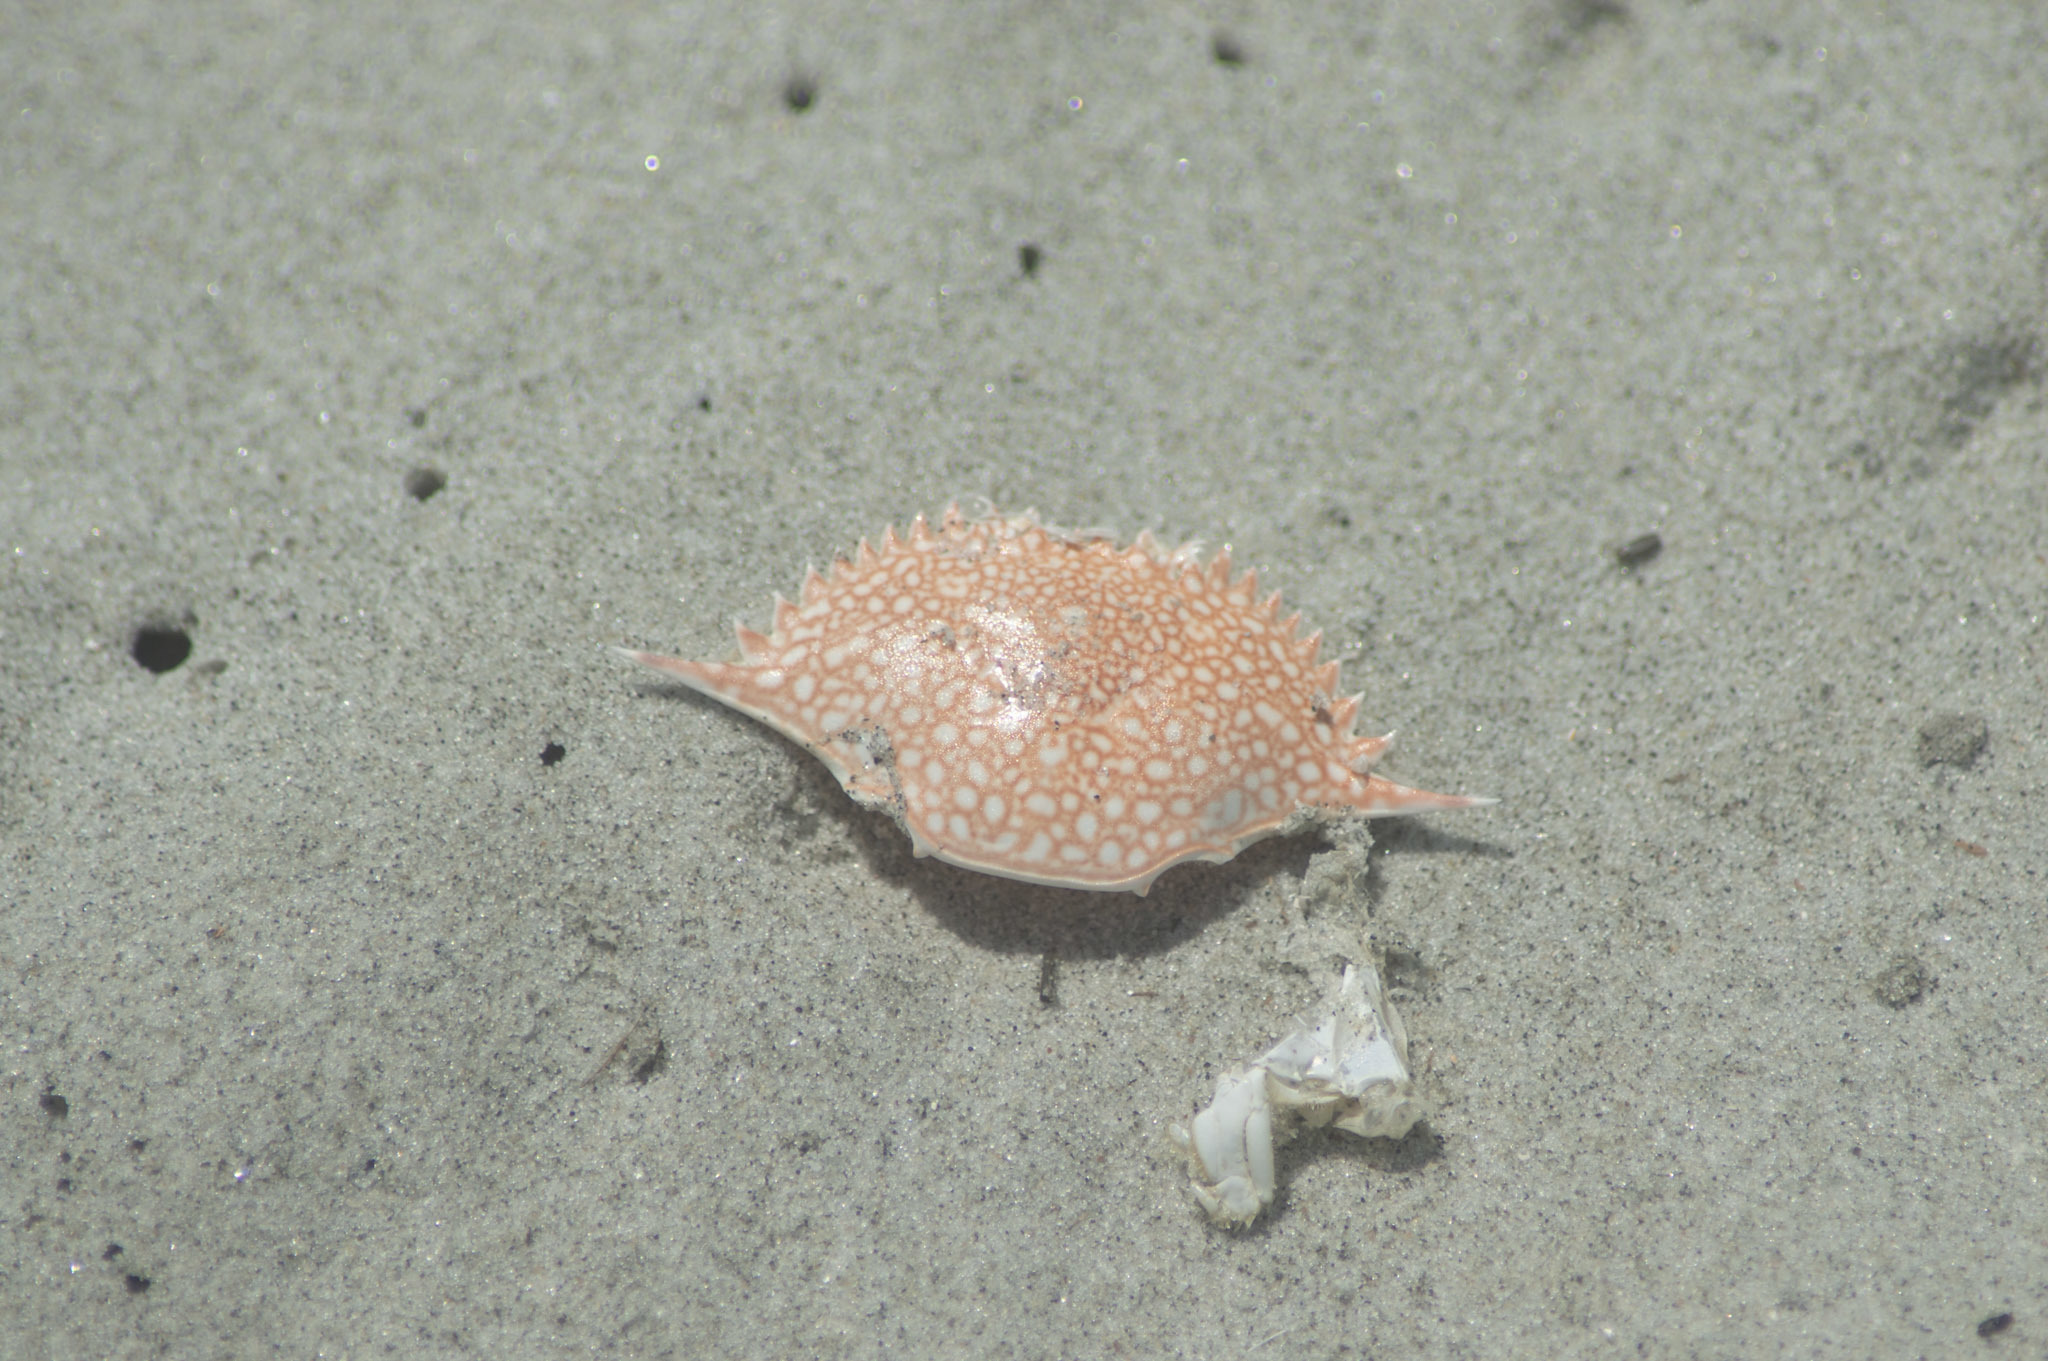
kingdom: Animalia
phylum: Arthropoda
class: Malacostraca
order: Decapoda
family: Portunidae
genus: Arenaeus
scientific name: Arenaeus cribrarius
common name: Speckled crab
